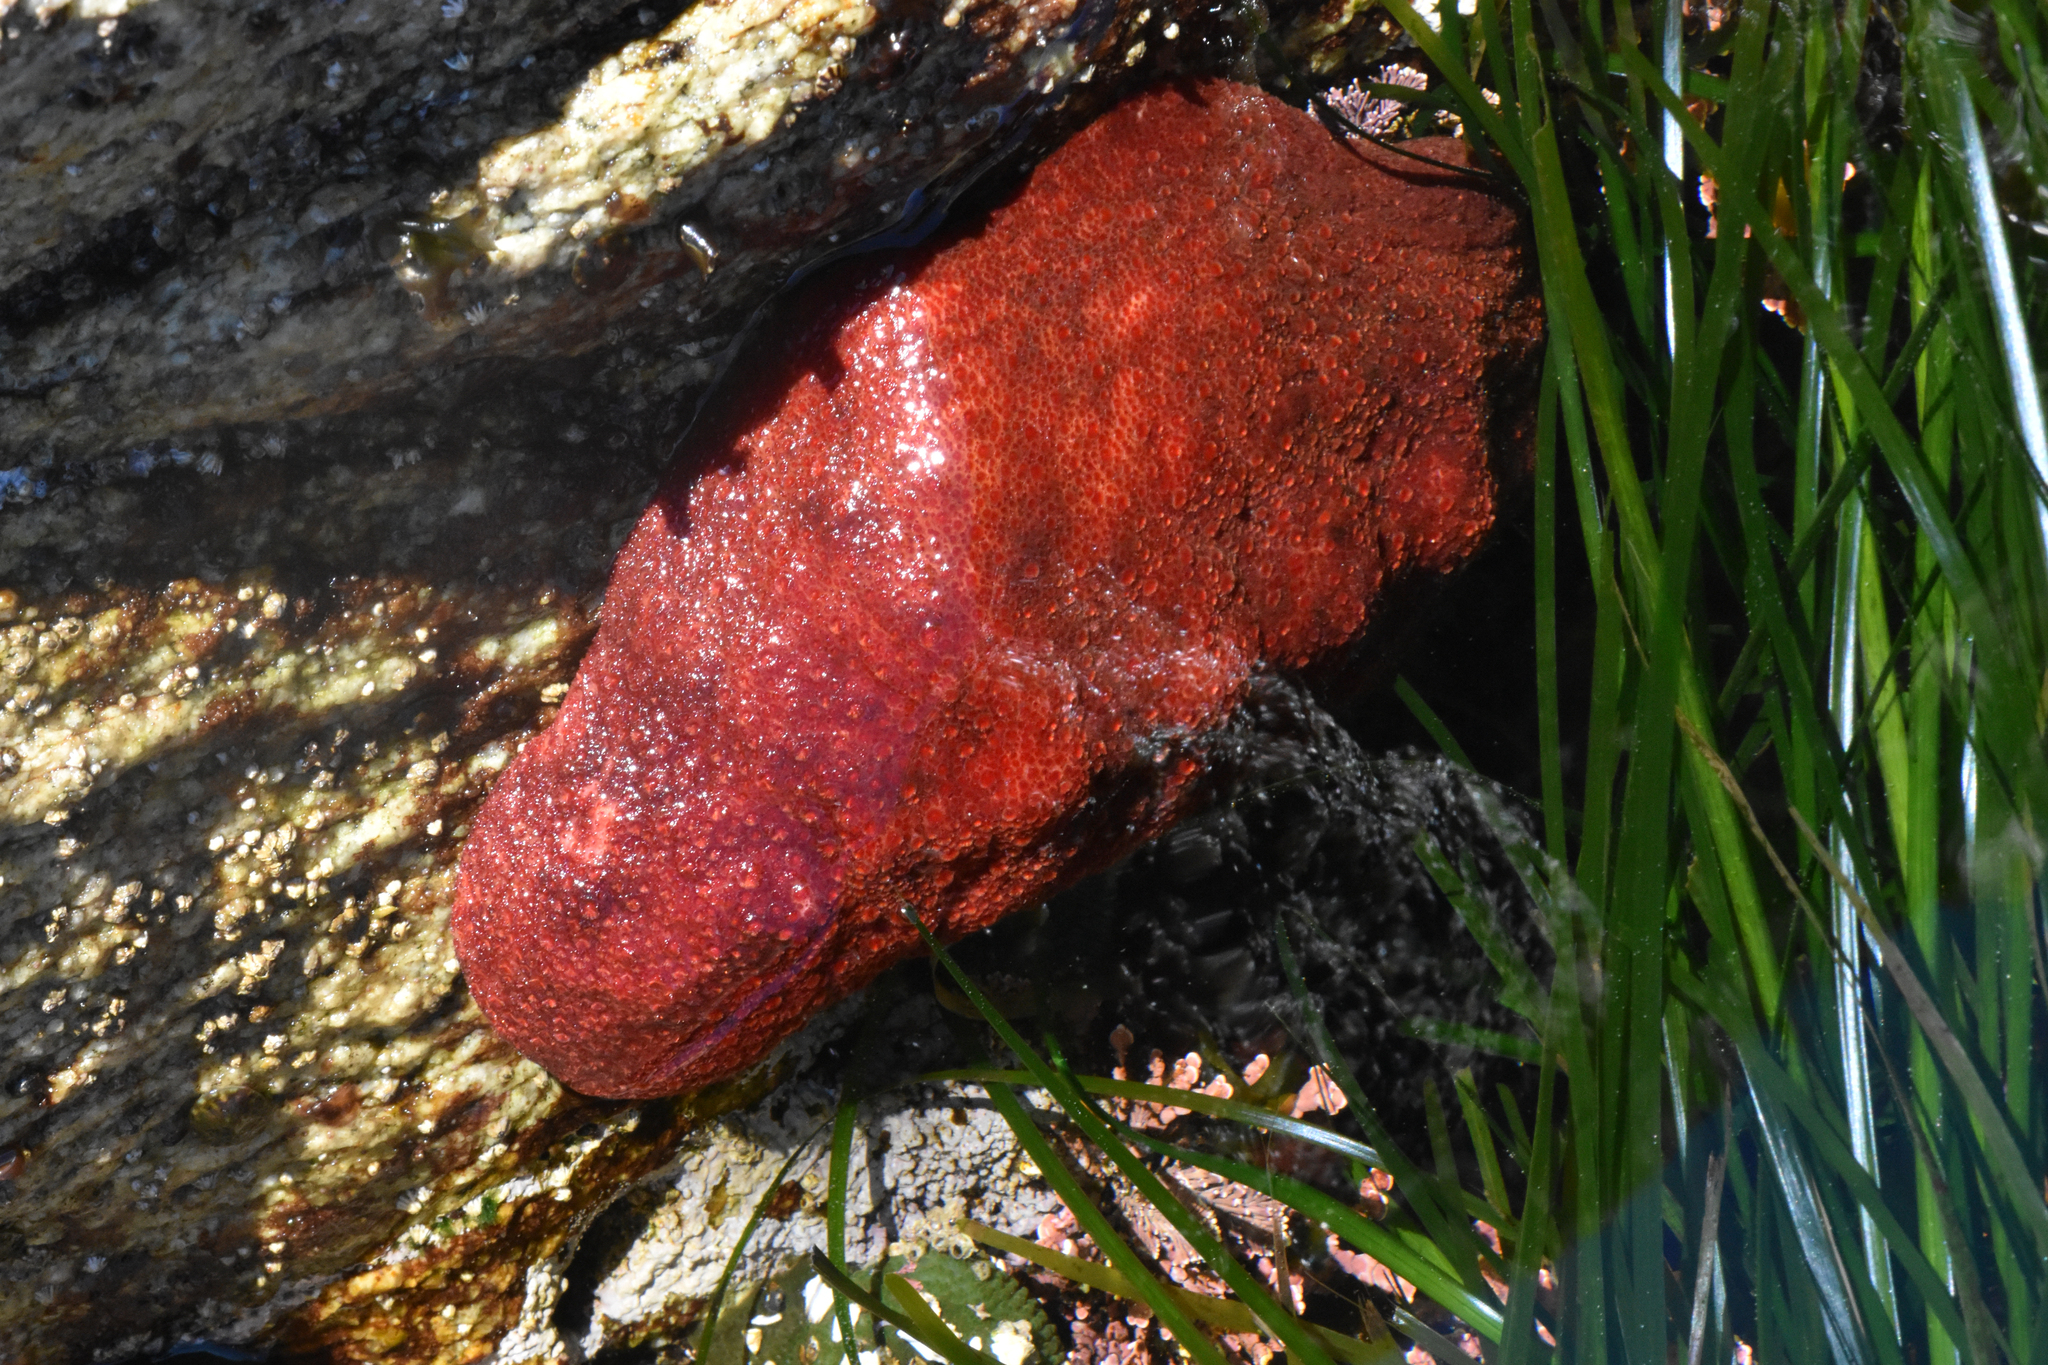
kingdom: Animalia
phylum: Mollusca
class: Polyplacophora
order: Chitonida
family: Acanthochitonidae
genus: Cryptochiton
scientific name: Cryptochiton stelleri
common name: Giant pacific chiton
